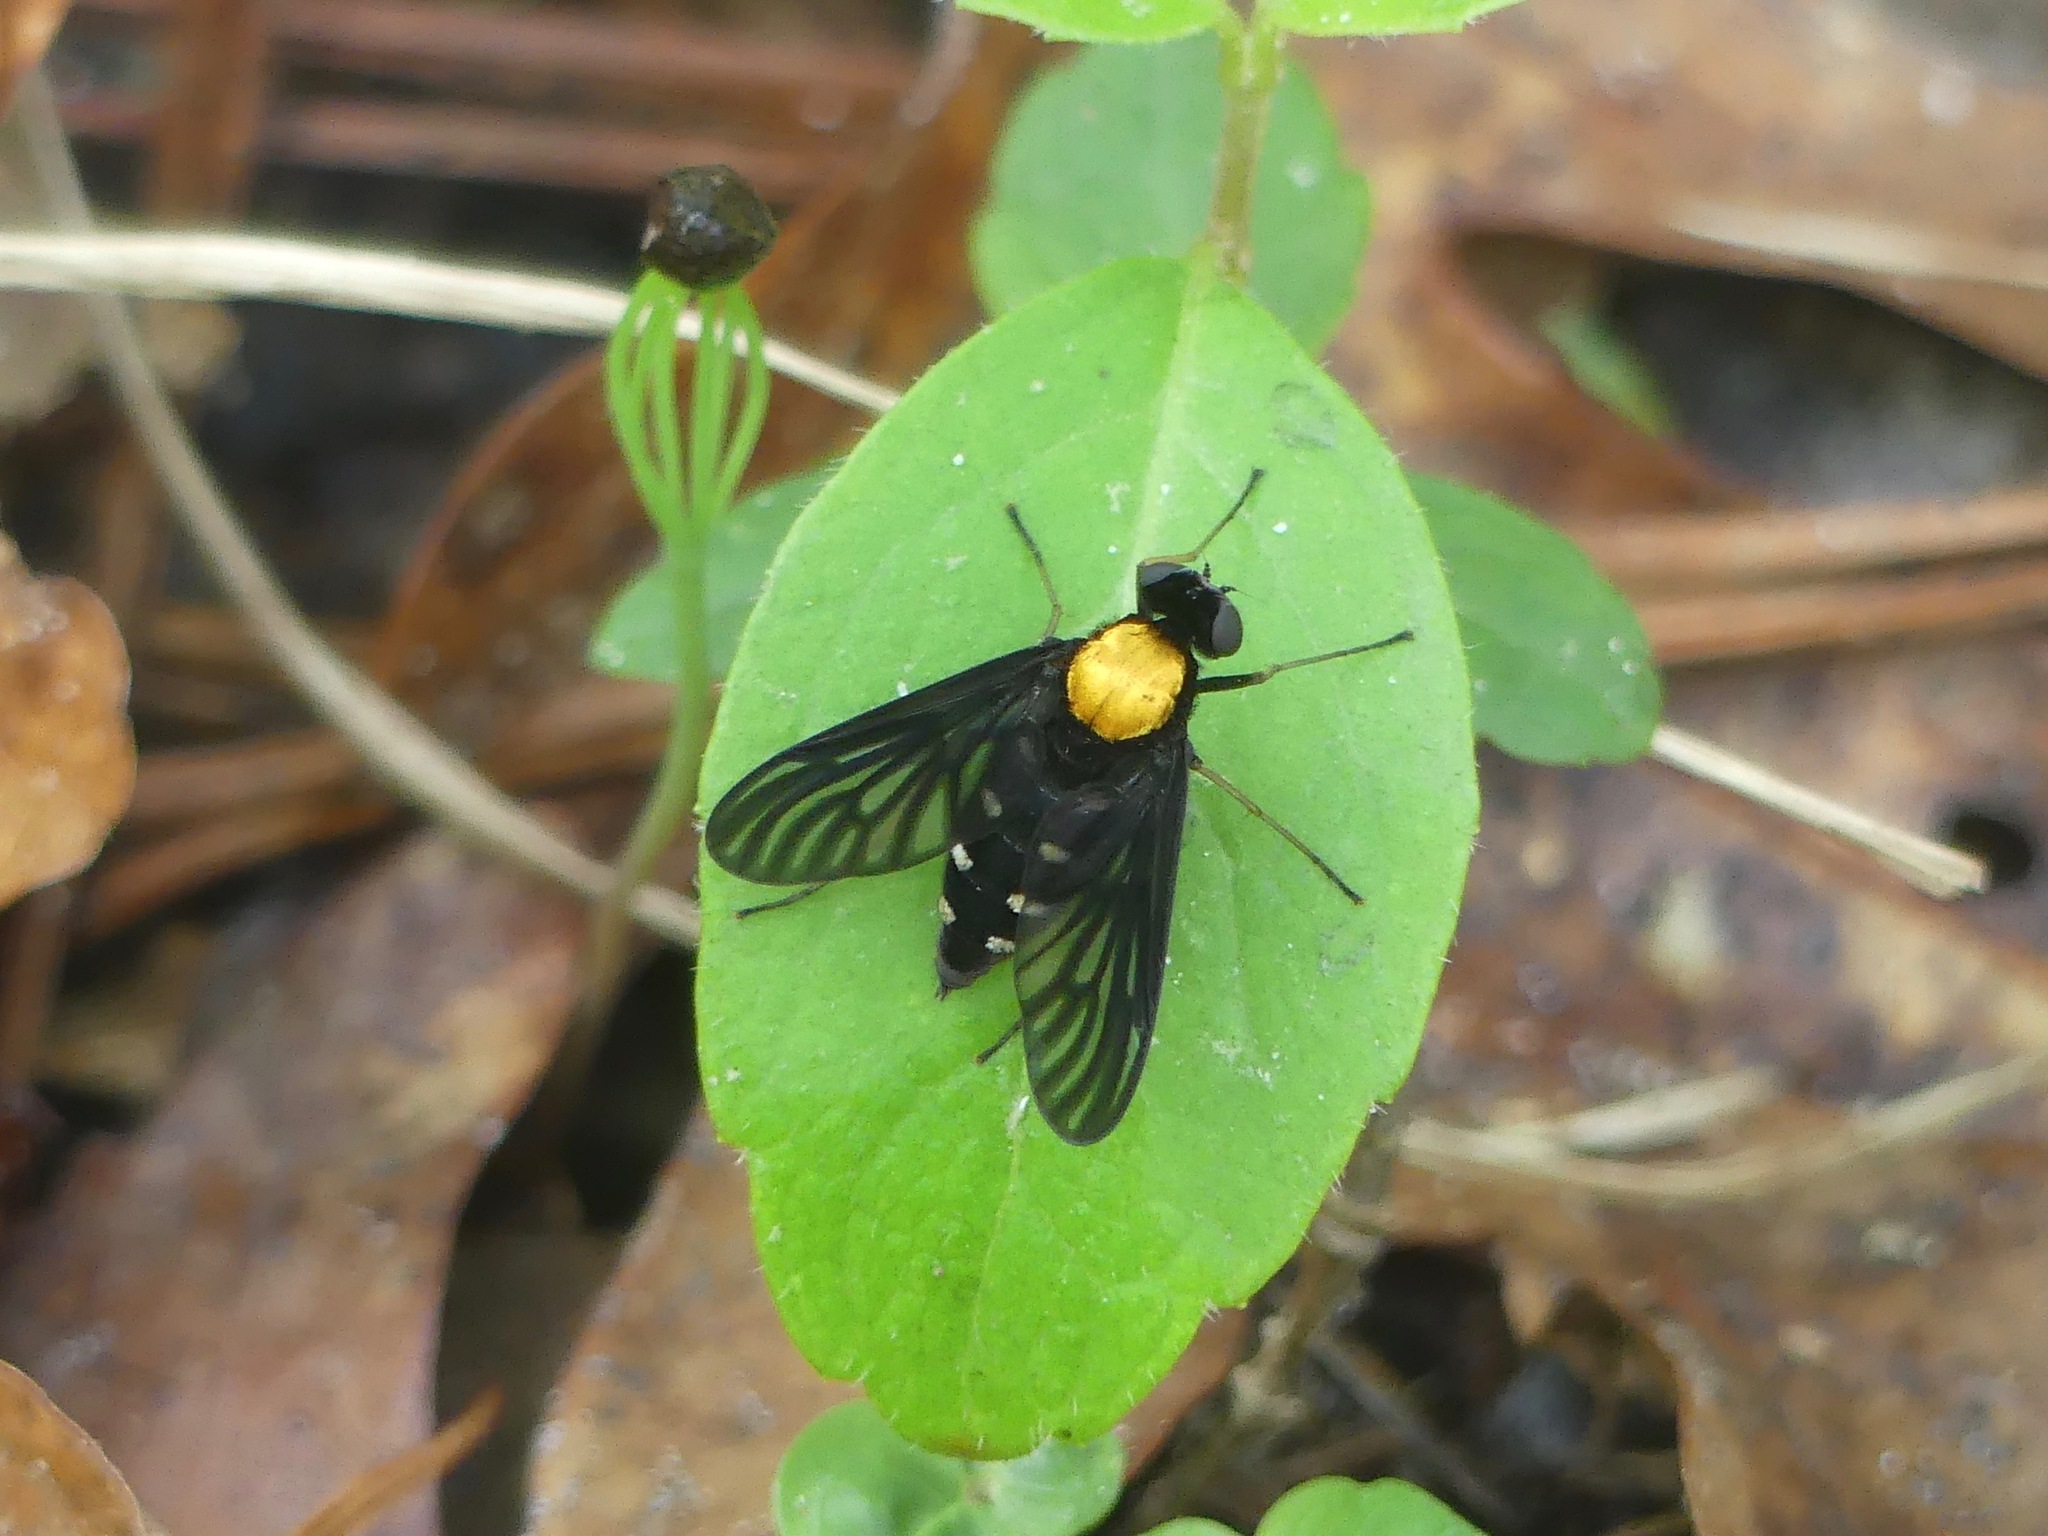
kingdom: Animalia
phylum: Arthropoda
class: Insecta
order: Diptera
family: Rhagionidae
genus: Chrysopilus
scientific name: Chrysopilus thoracicus
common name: Golden-backed snipe fly
